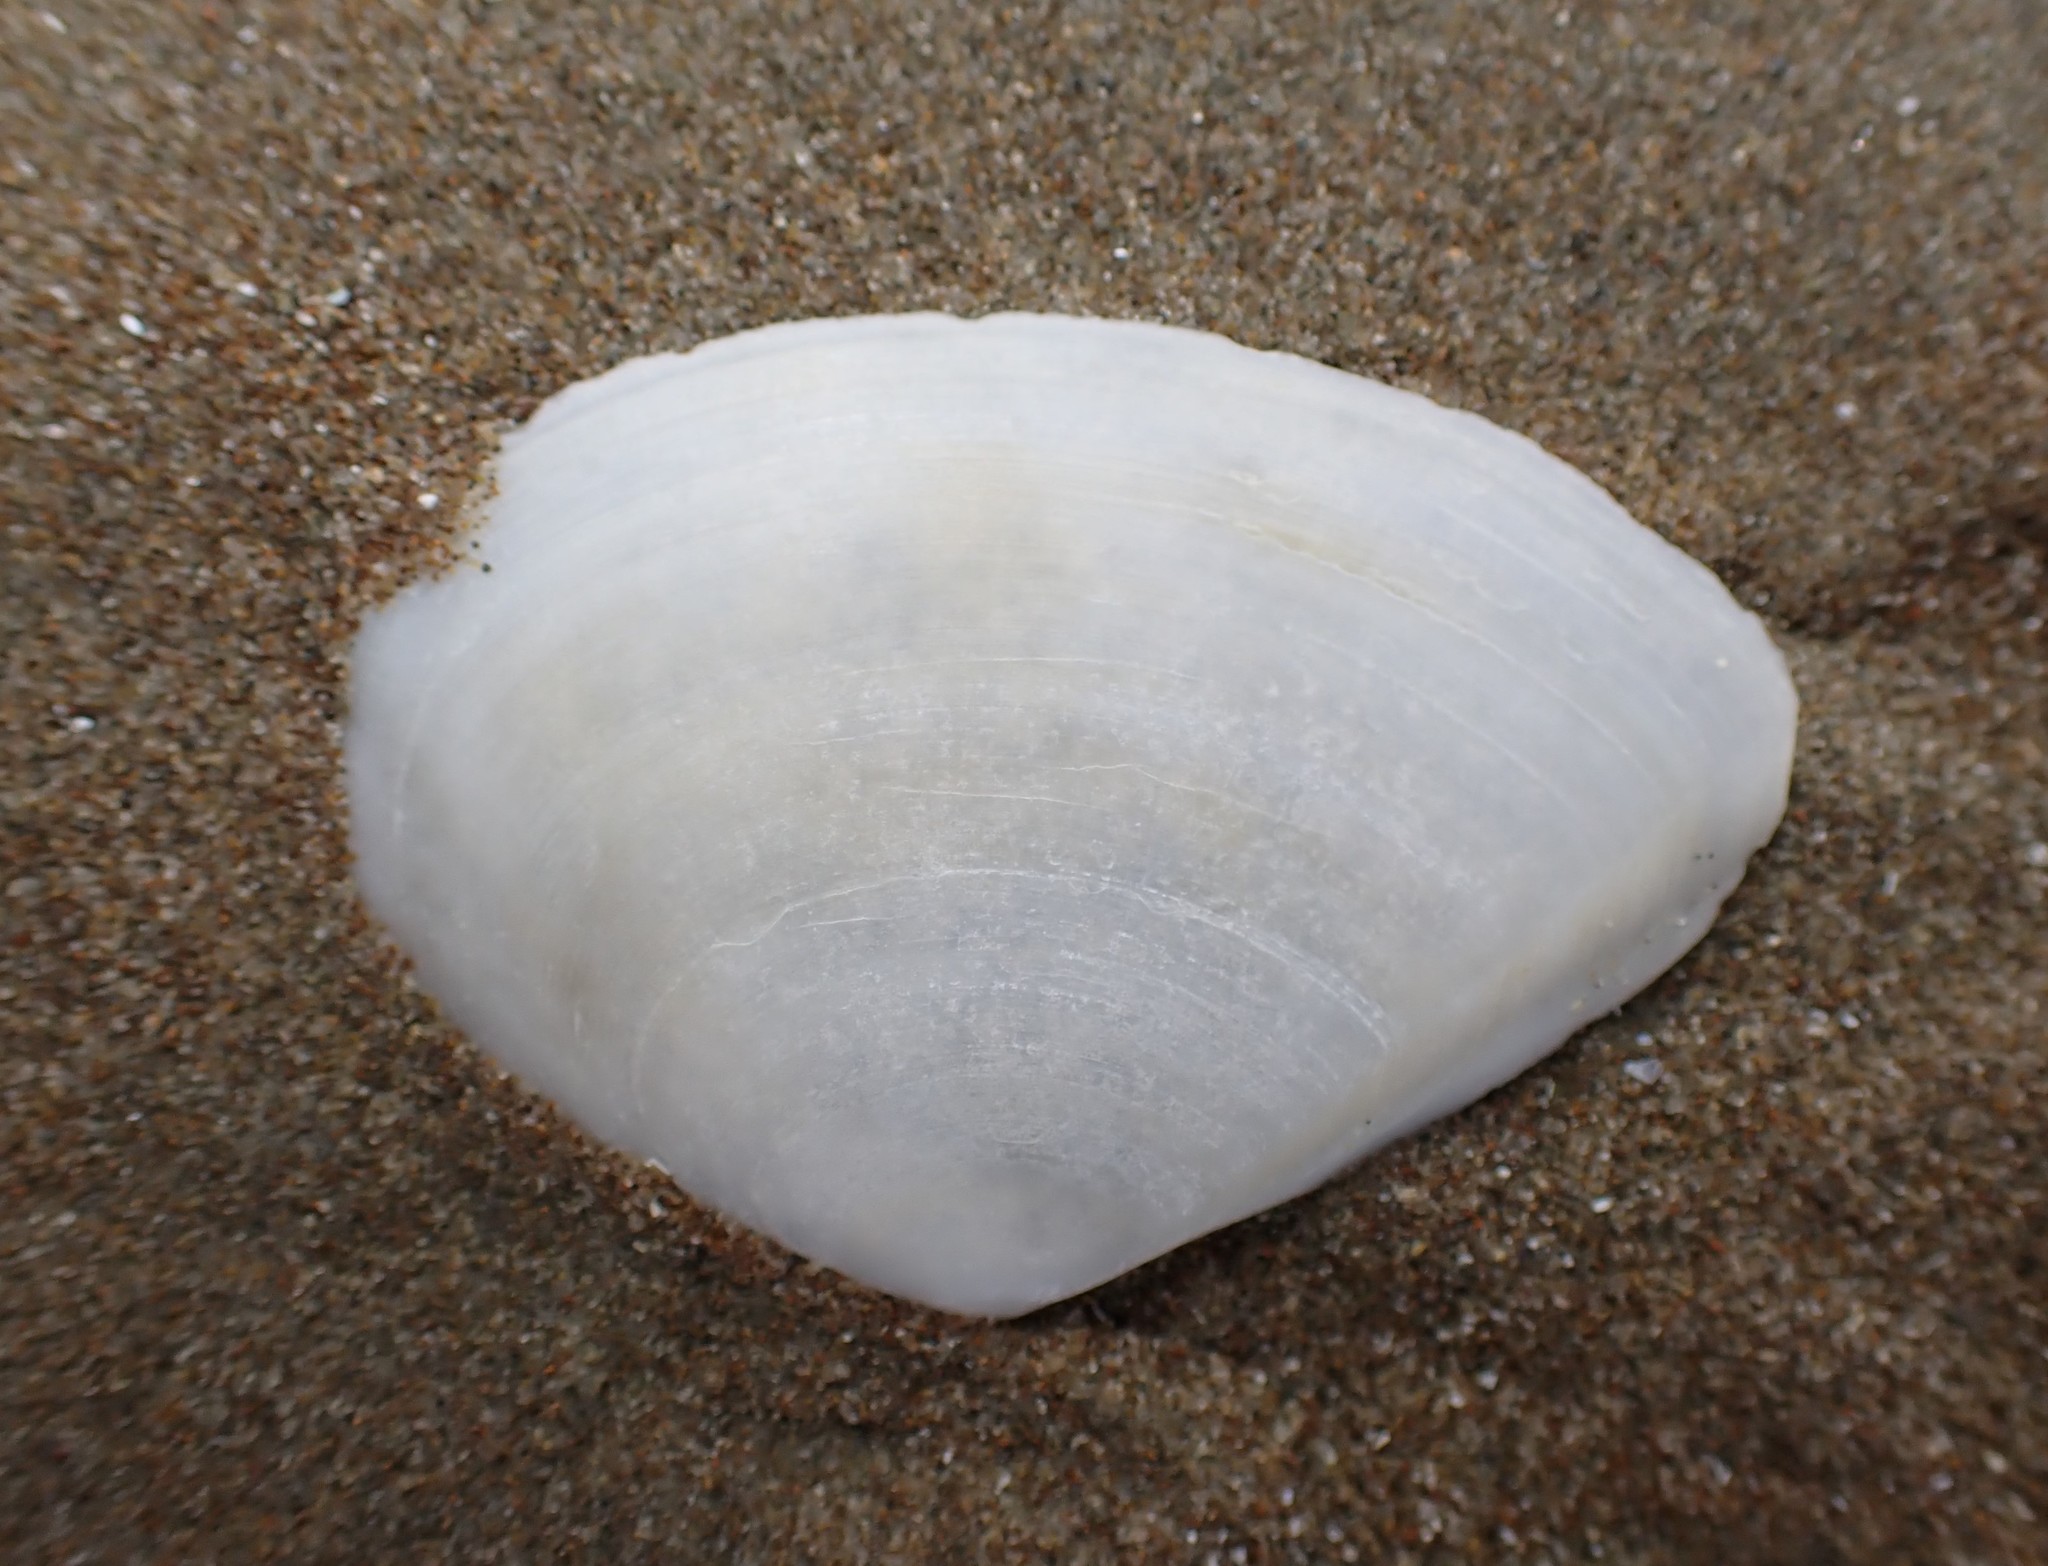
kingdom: Animalia
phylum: Mollusca
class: Bivalvia
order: Cardiida
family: Tellinidae
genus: Bartschicoma
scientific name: Bartschicoma gaimardi
